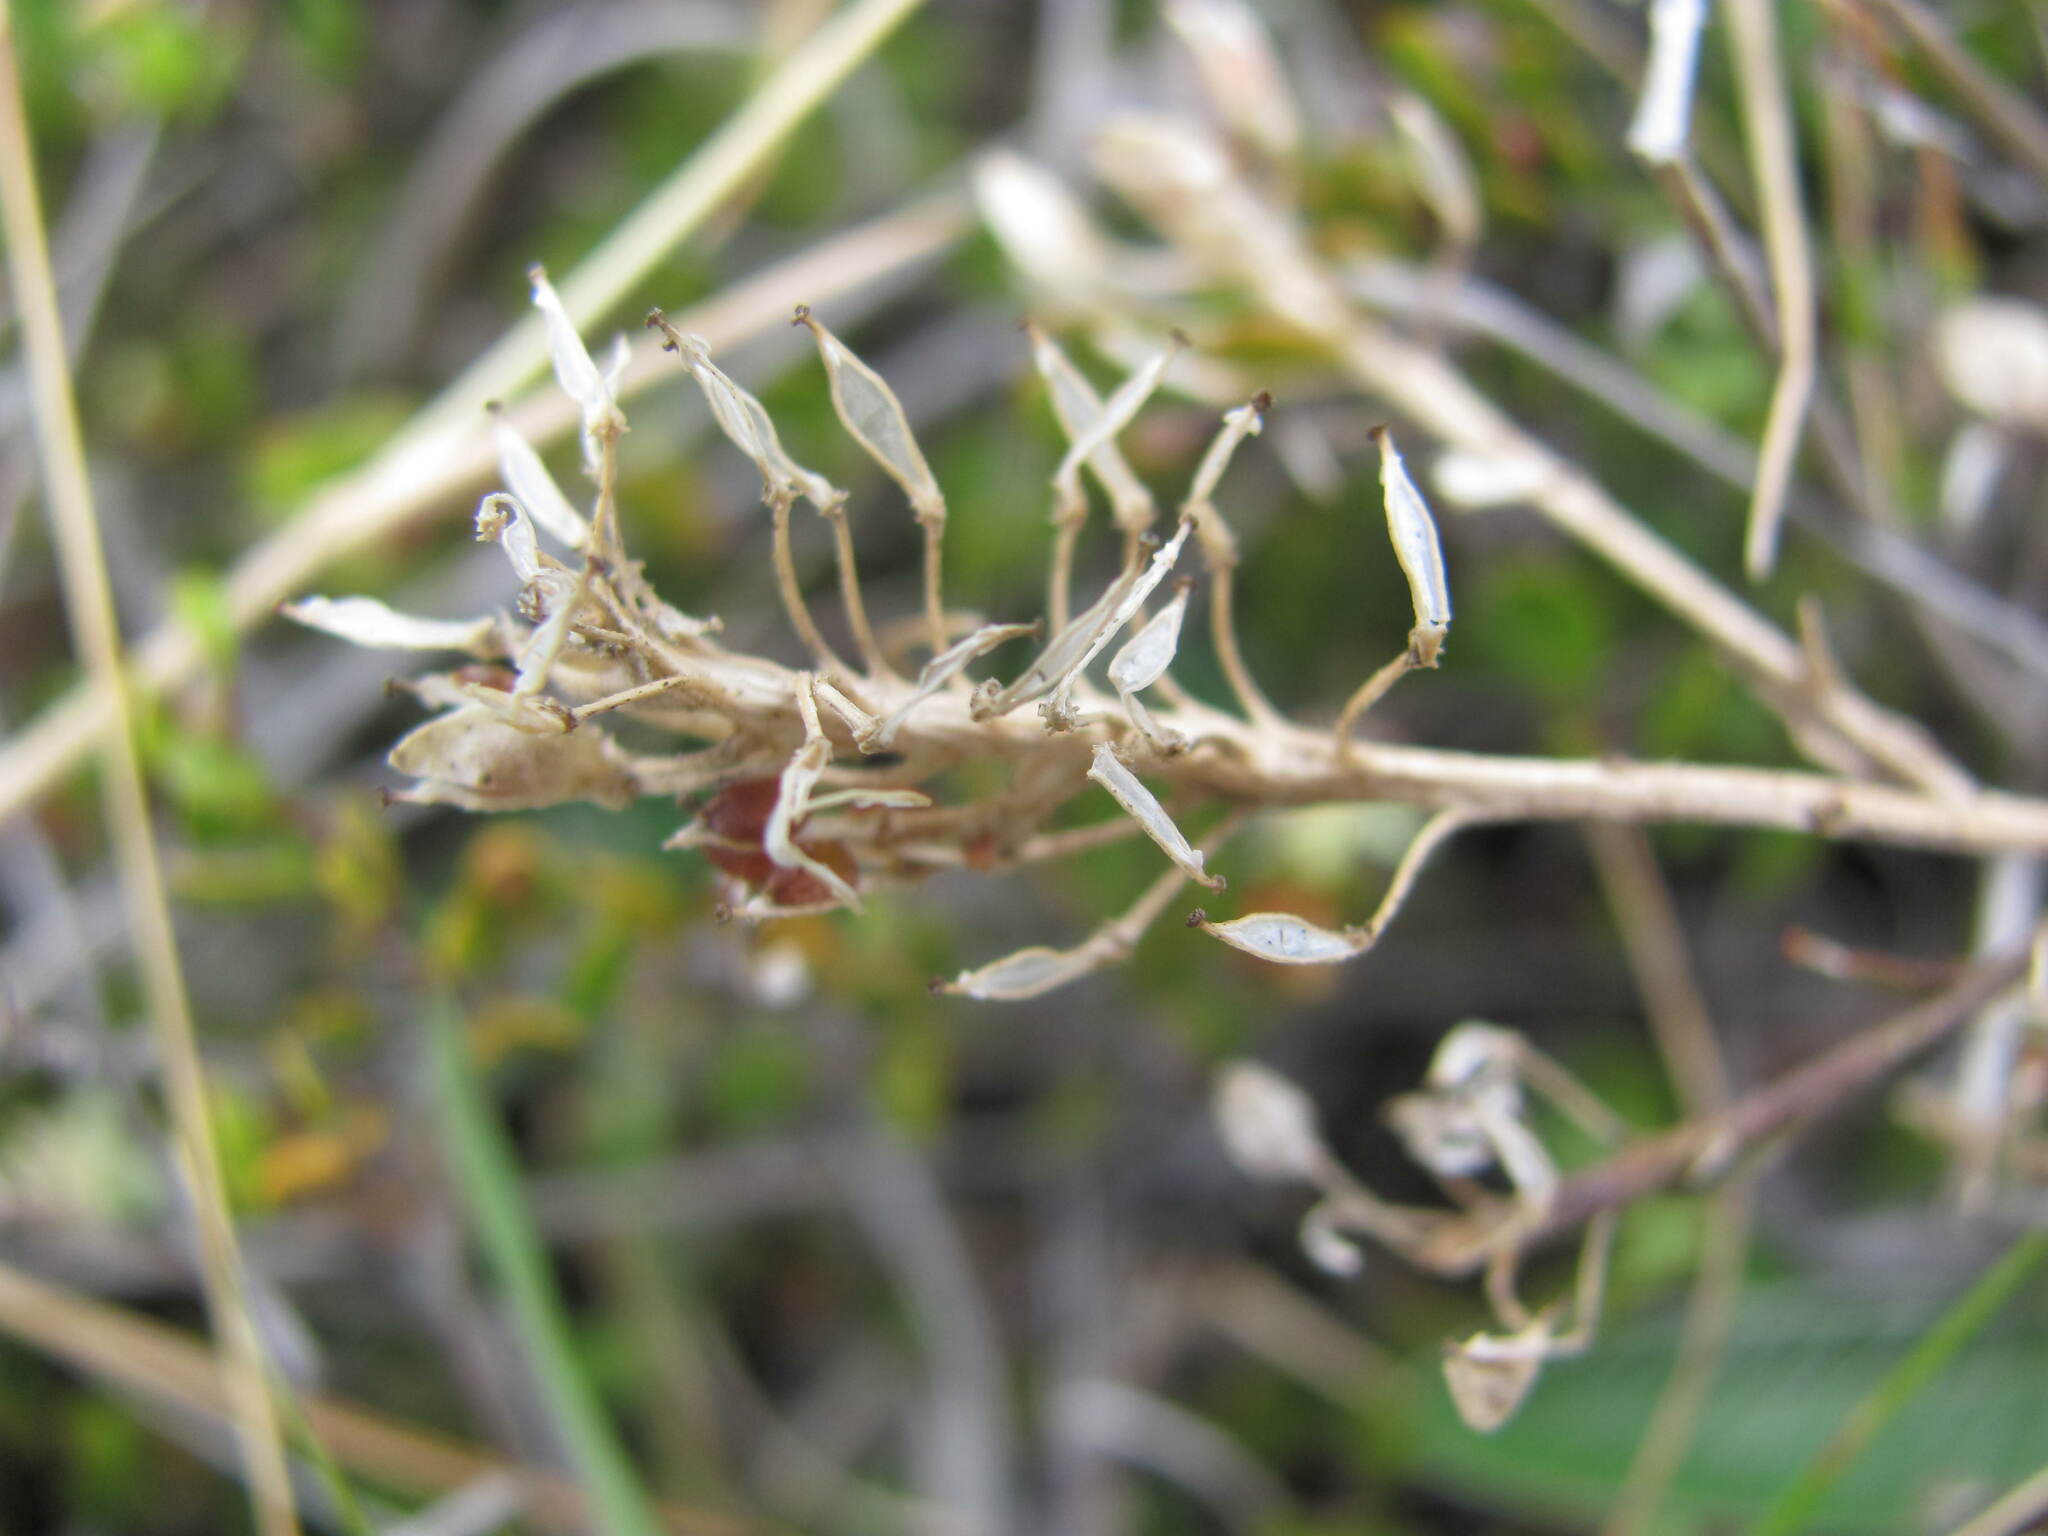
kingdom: Plantae
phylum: Tracheophyta
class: Magnoliopsida
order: Brassicales
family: Brassicaceae
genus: Lepidium
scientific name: Lepidium sisymbrioides
